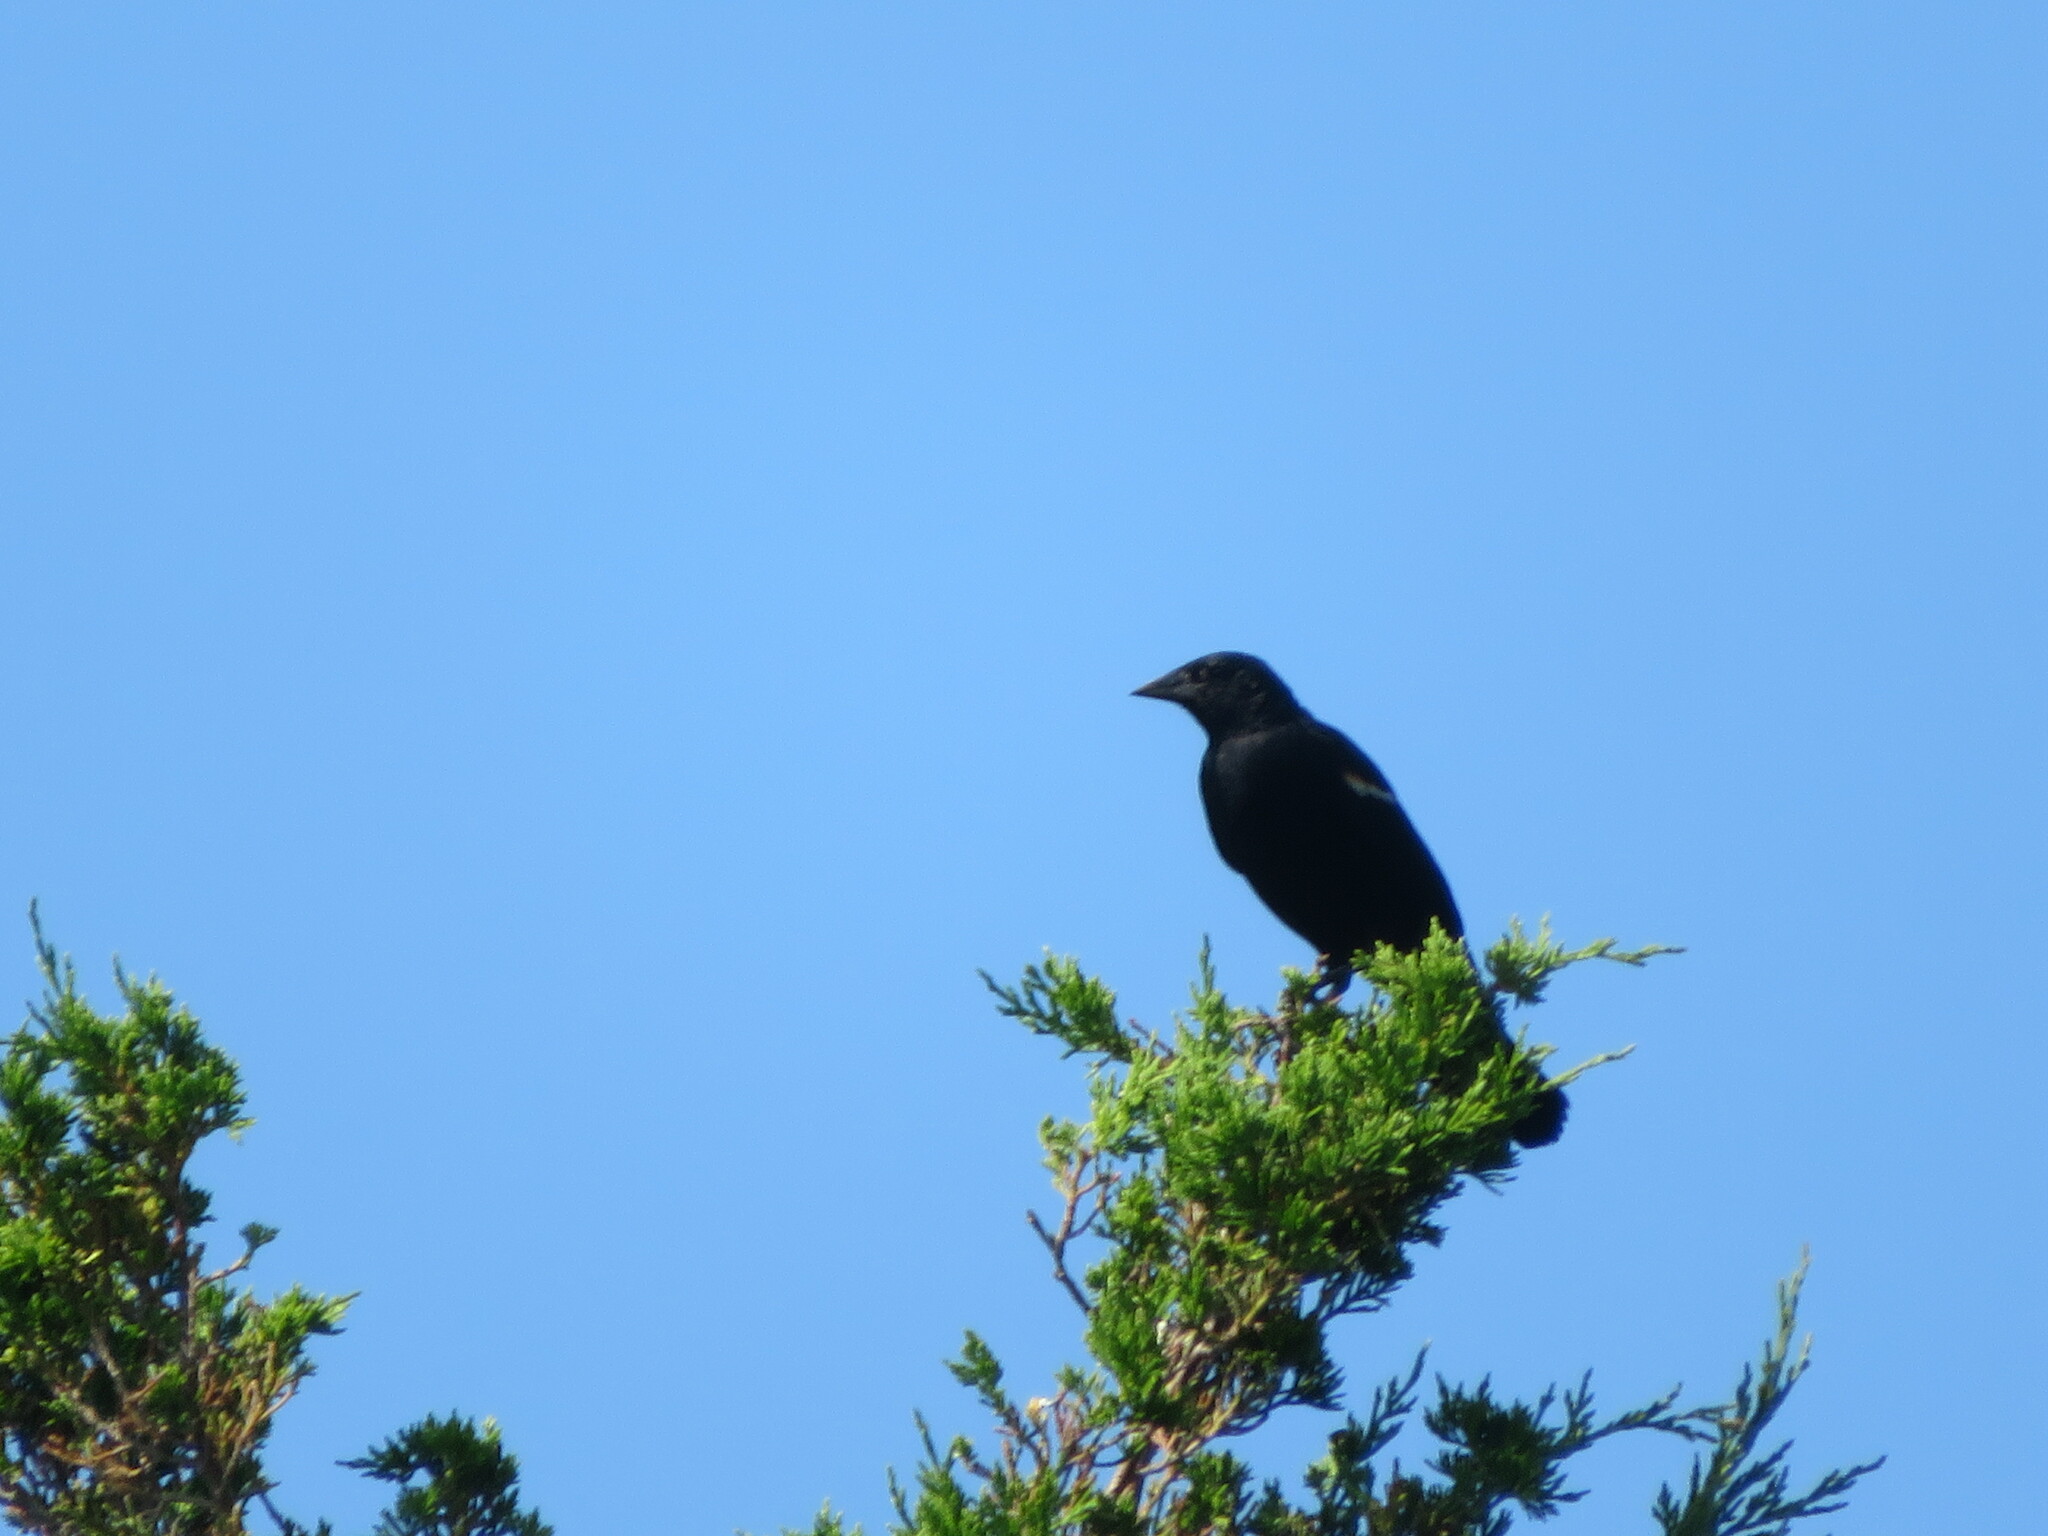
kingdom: Animalia
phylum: Chordata
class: Aves
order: Passeriformes
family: Icteridae
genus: Agelaius
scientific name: Agelaius phoeniceus
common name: Red-winged blackbird
